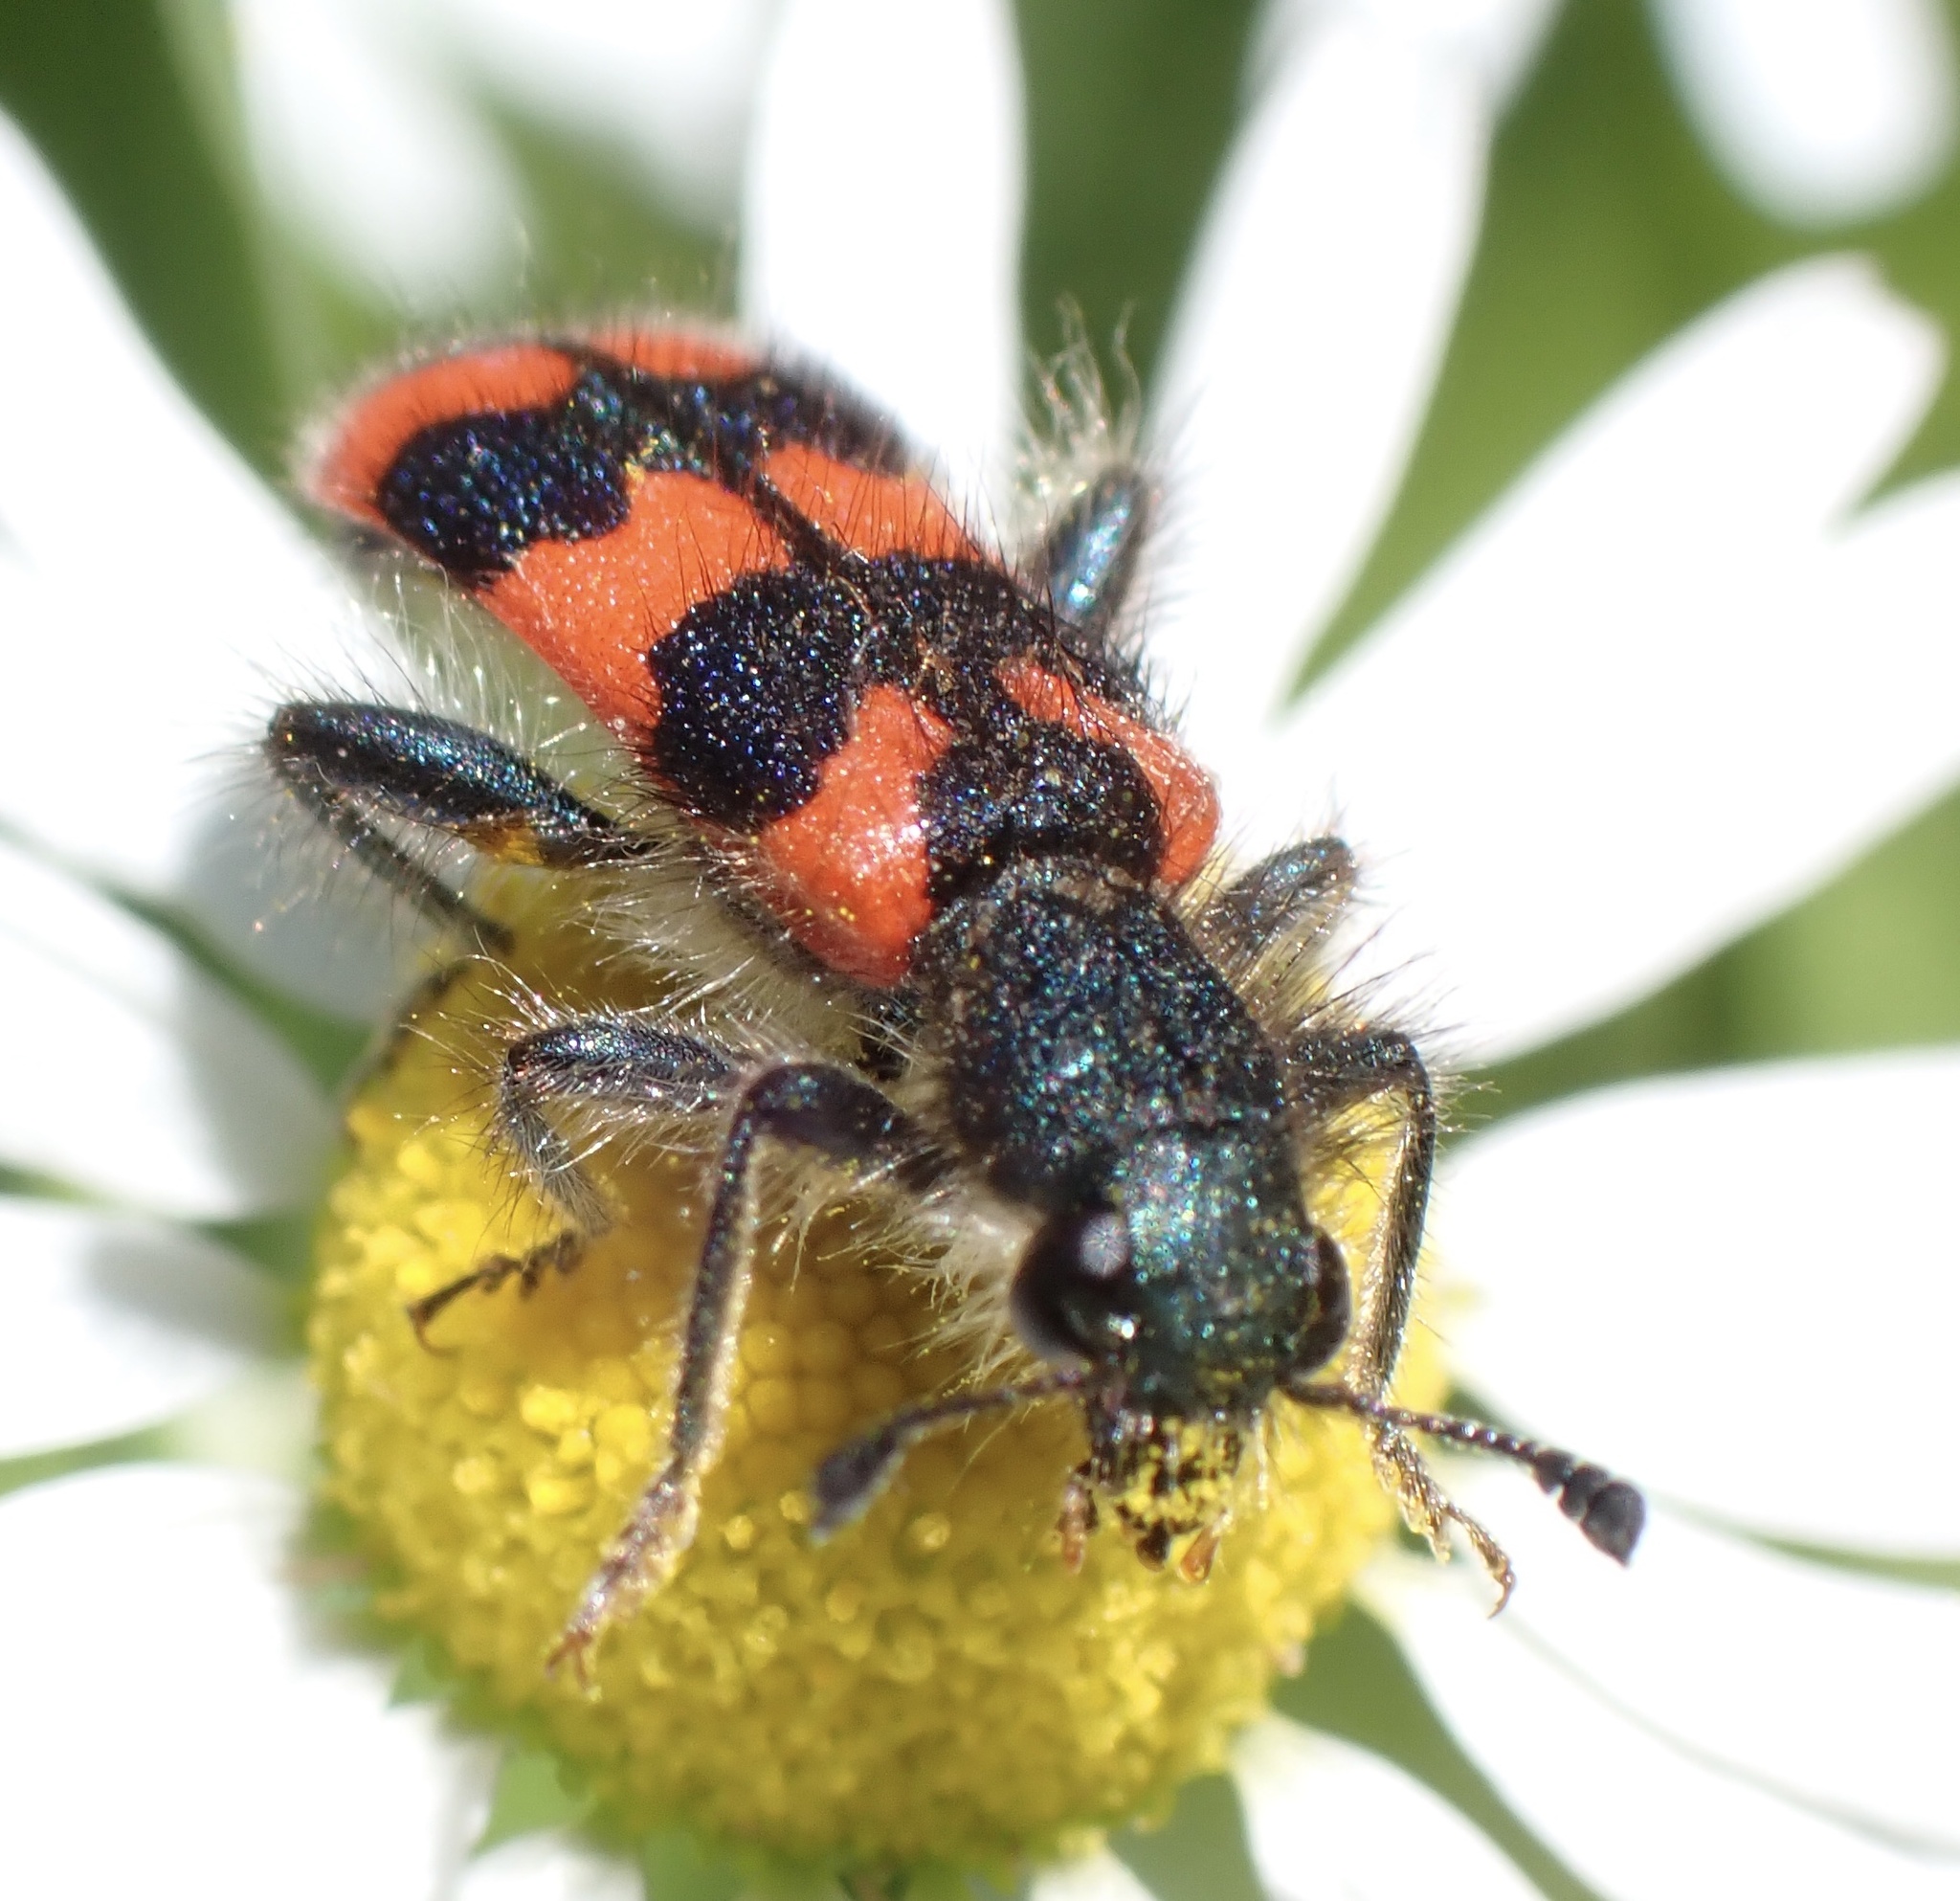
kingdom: Animalia
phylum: Arthropoda
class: Insecta
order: Coleoptera
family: Cleridae
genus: Trichodes
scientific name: Trichodes alvearius
